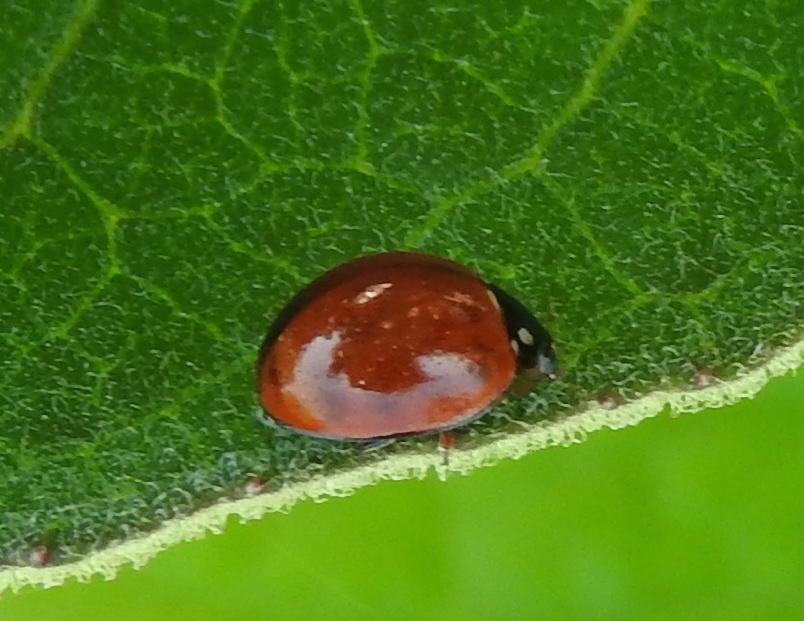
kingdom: Animalia
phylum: Arthropoda
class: Insecta
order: Coleoptera
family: Coccinellidae
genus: Cycloneda
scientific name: Cycloneda sanguinea
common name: Ladybird beetle
